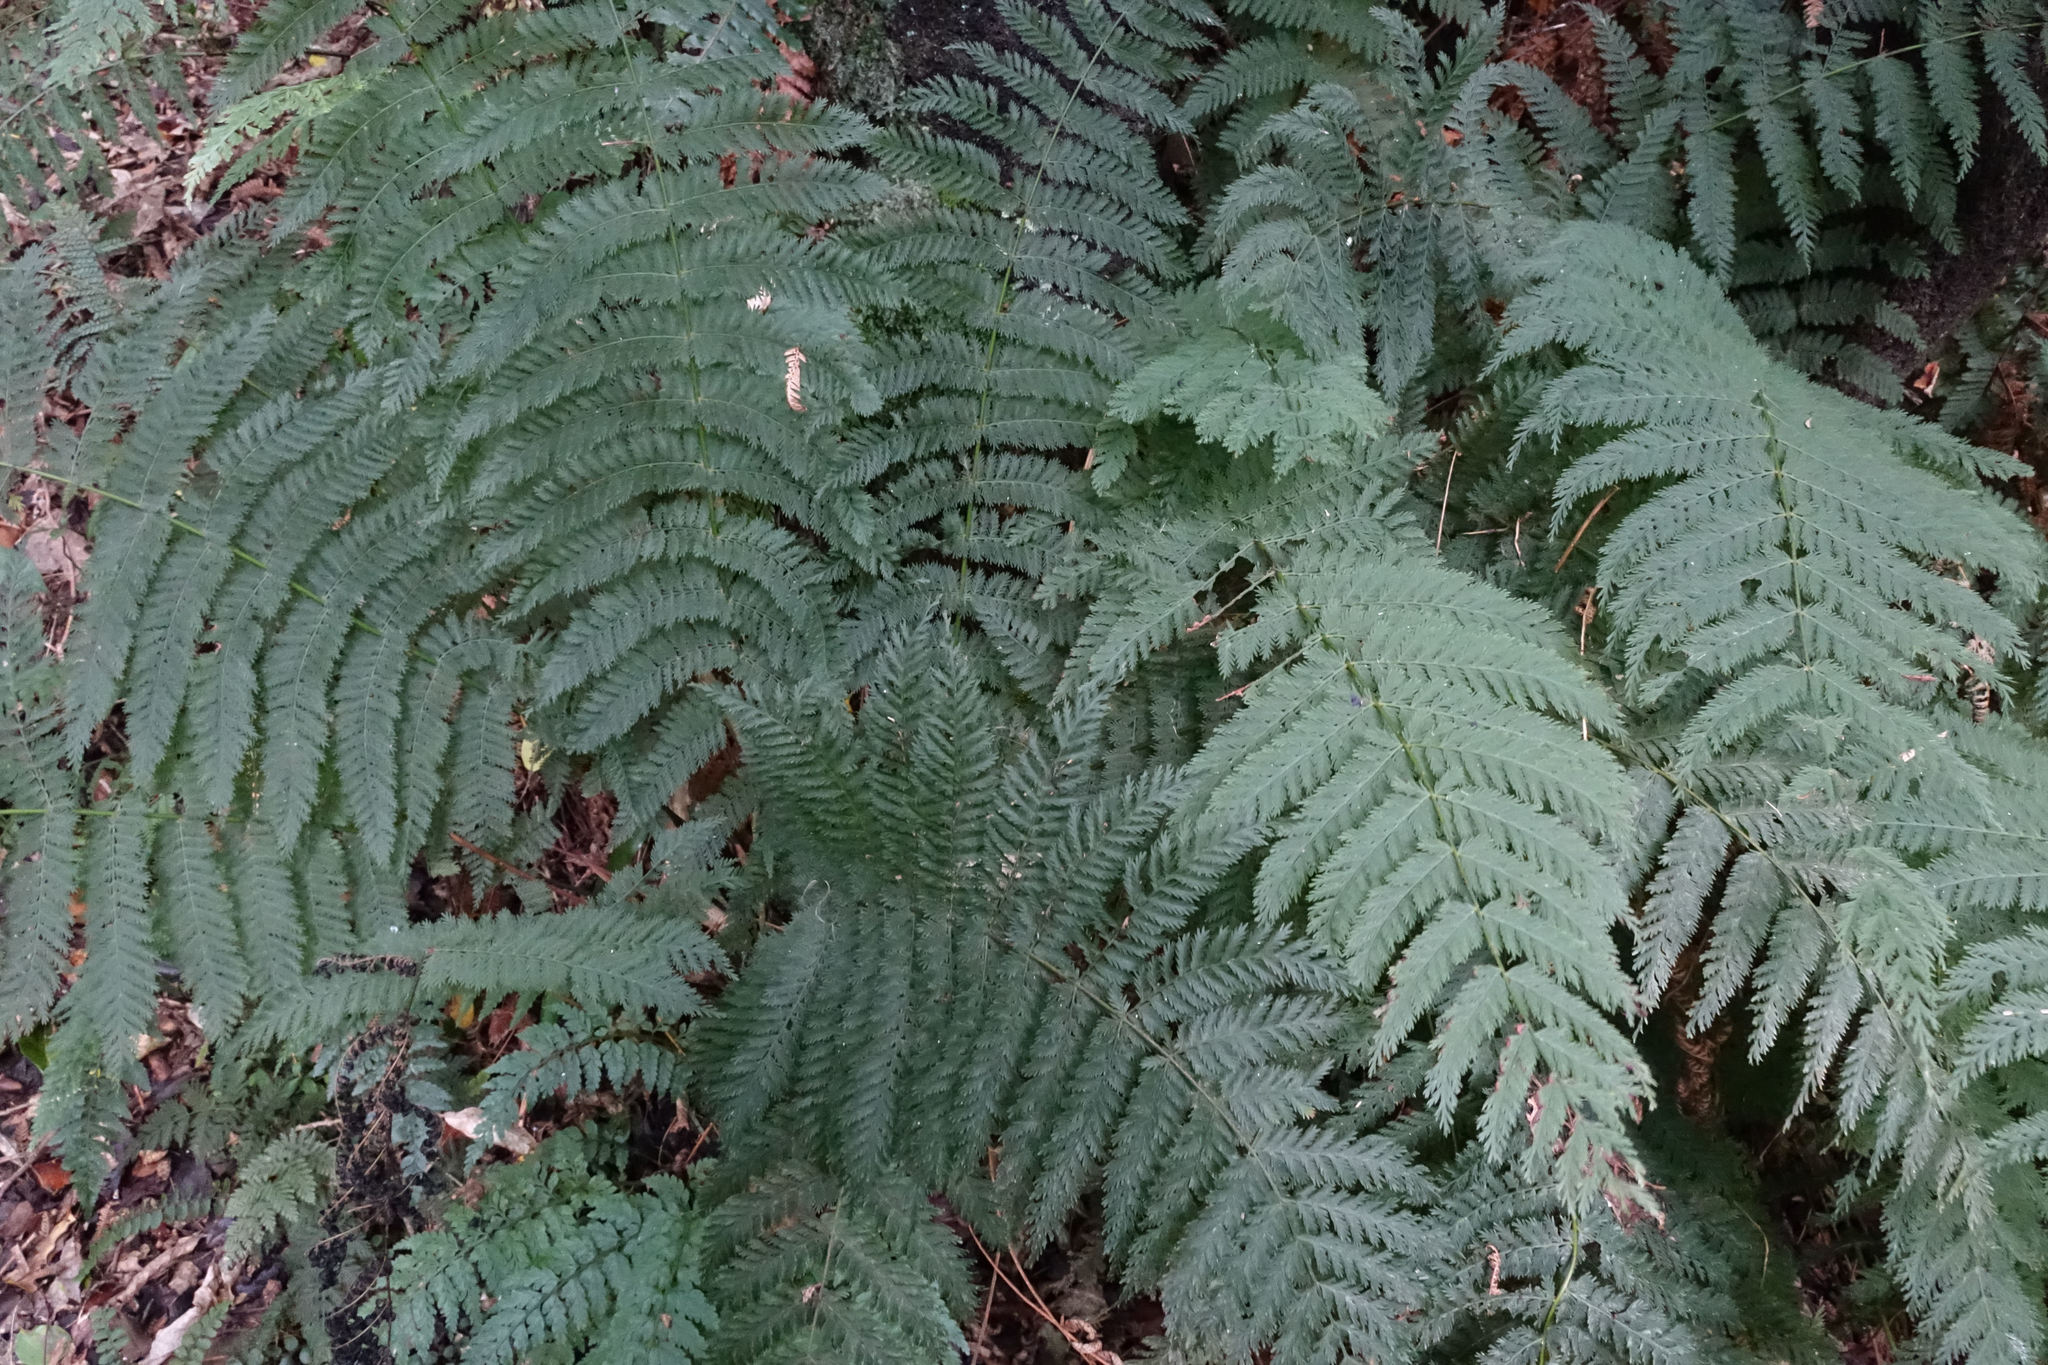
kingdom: Plantae
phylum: Tracheophyta
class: Polypodiopsida
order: Osmundales
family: Osmundaceae
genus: Leptopteris
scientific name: Leptopteris hymenophylloides
